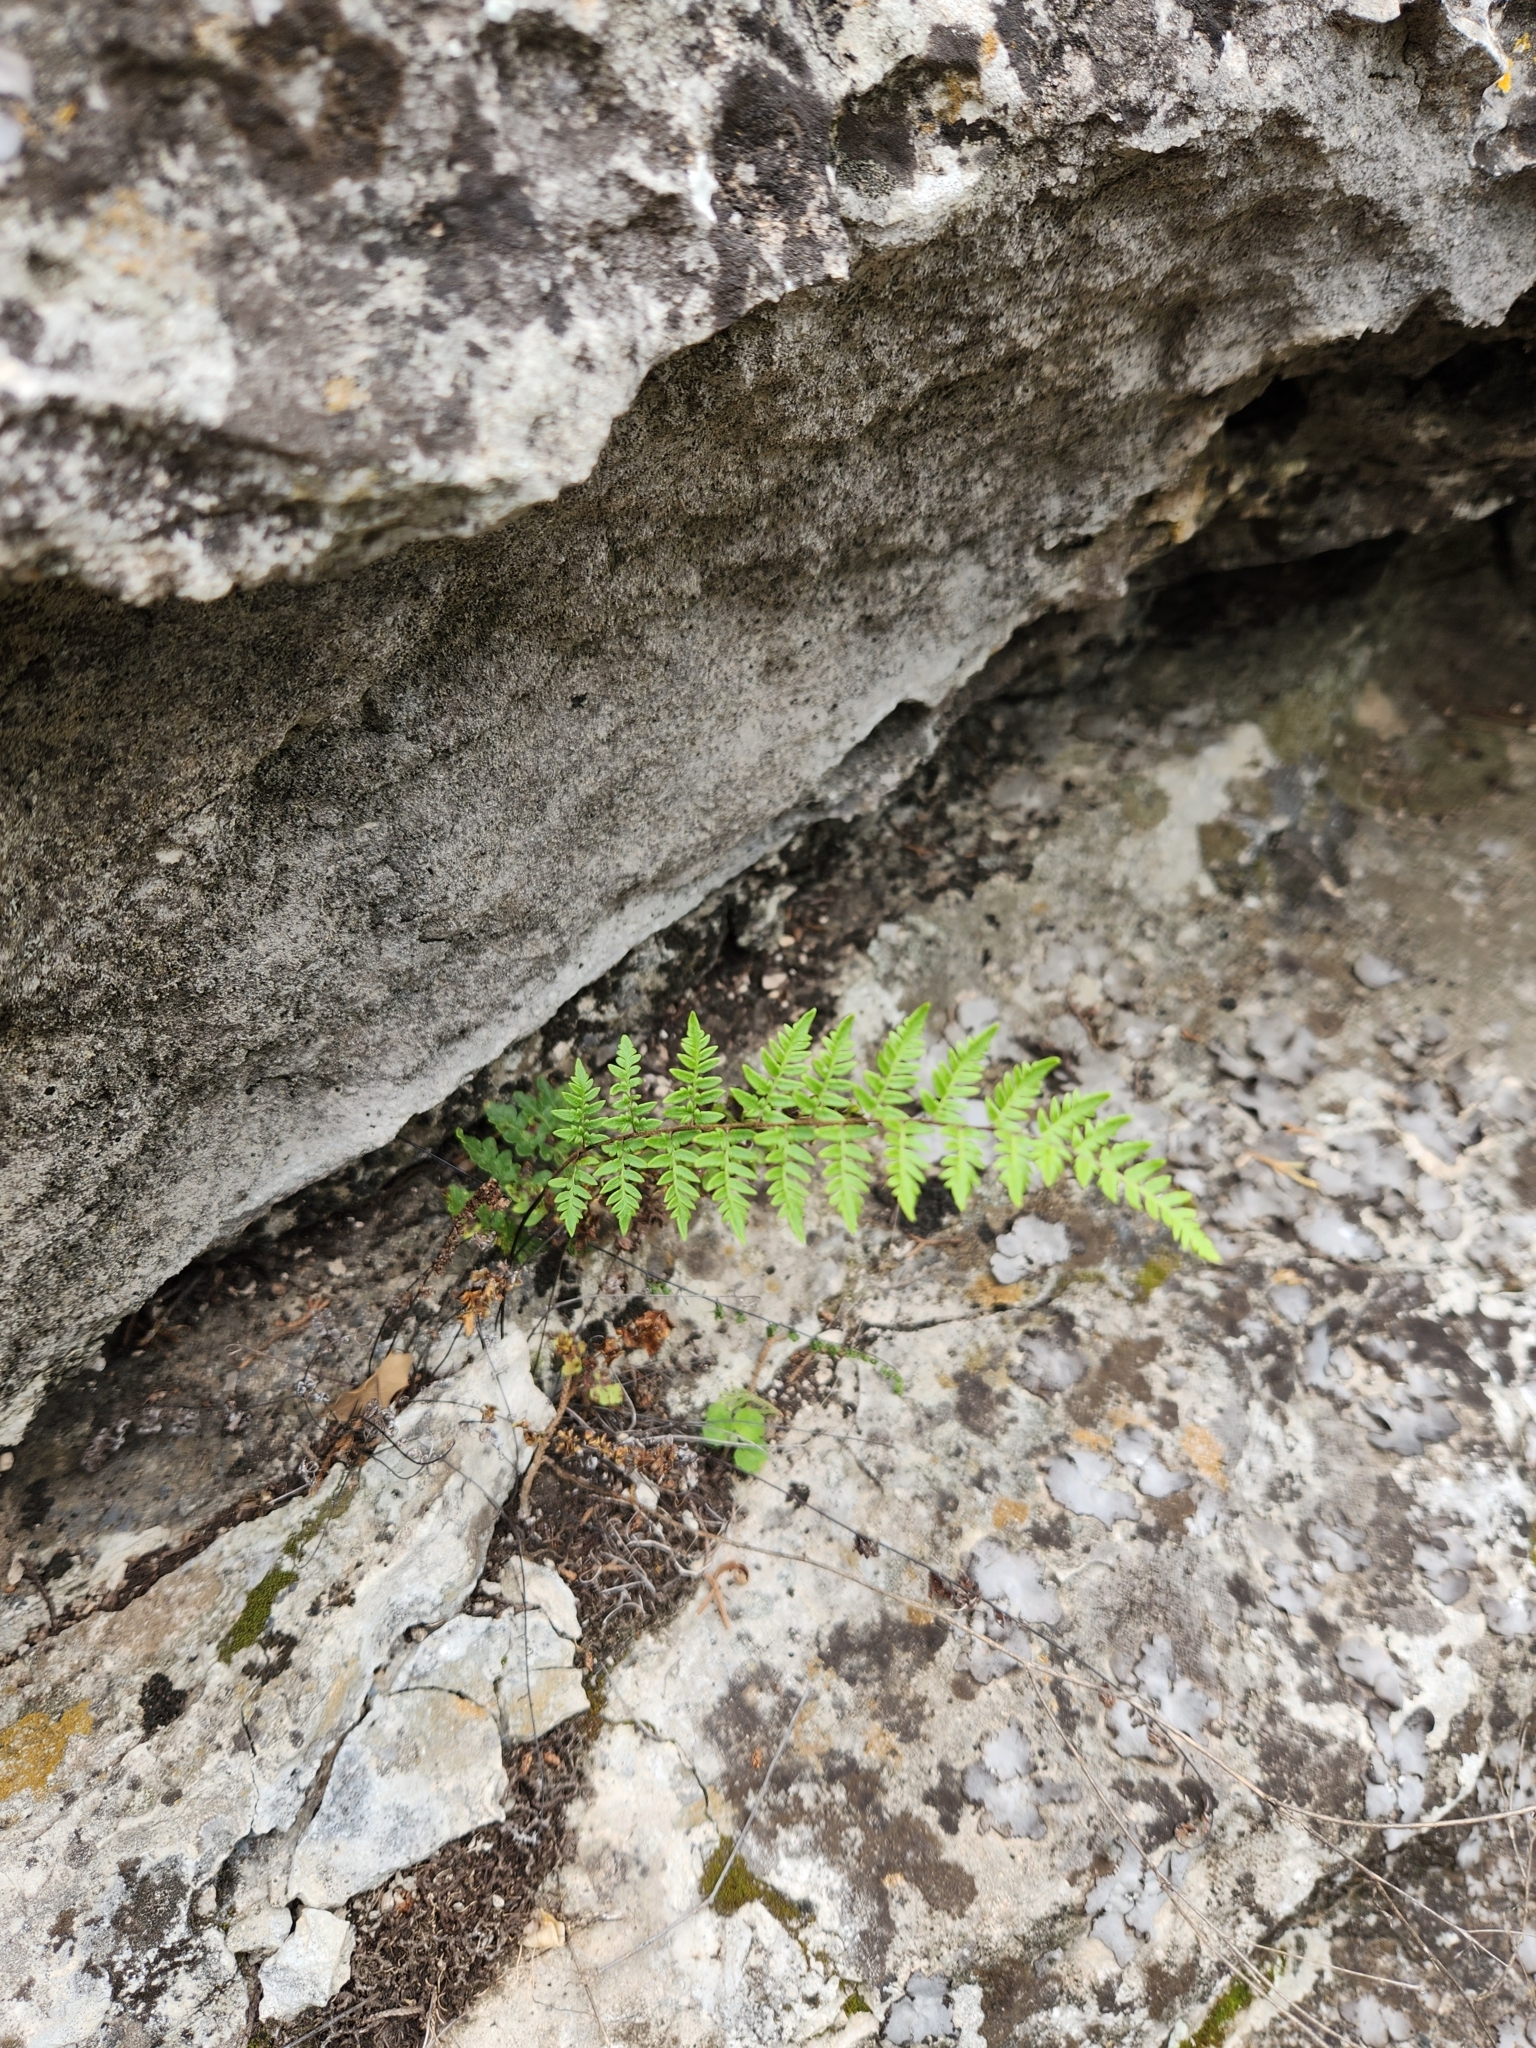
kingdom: Plantae
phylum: Tracheophyta
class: Polypodiopsida
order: Polypodiales
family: Pteridaceae
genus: Myriopteris
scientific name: Myriopteris alabamensis
